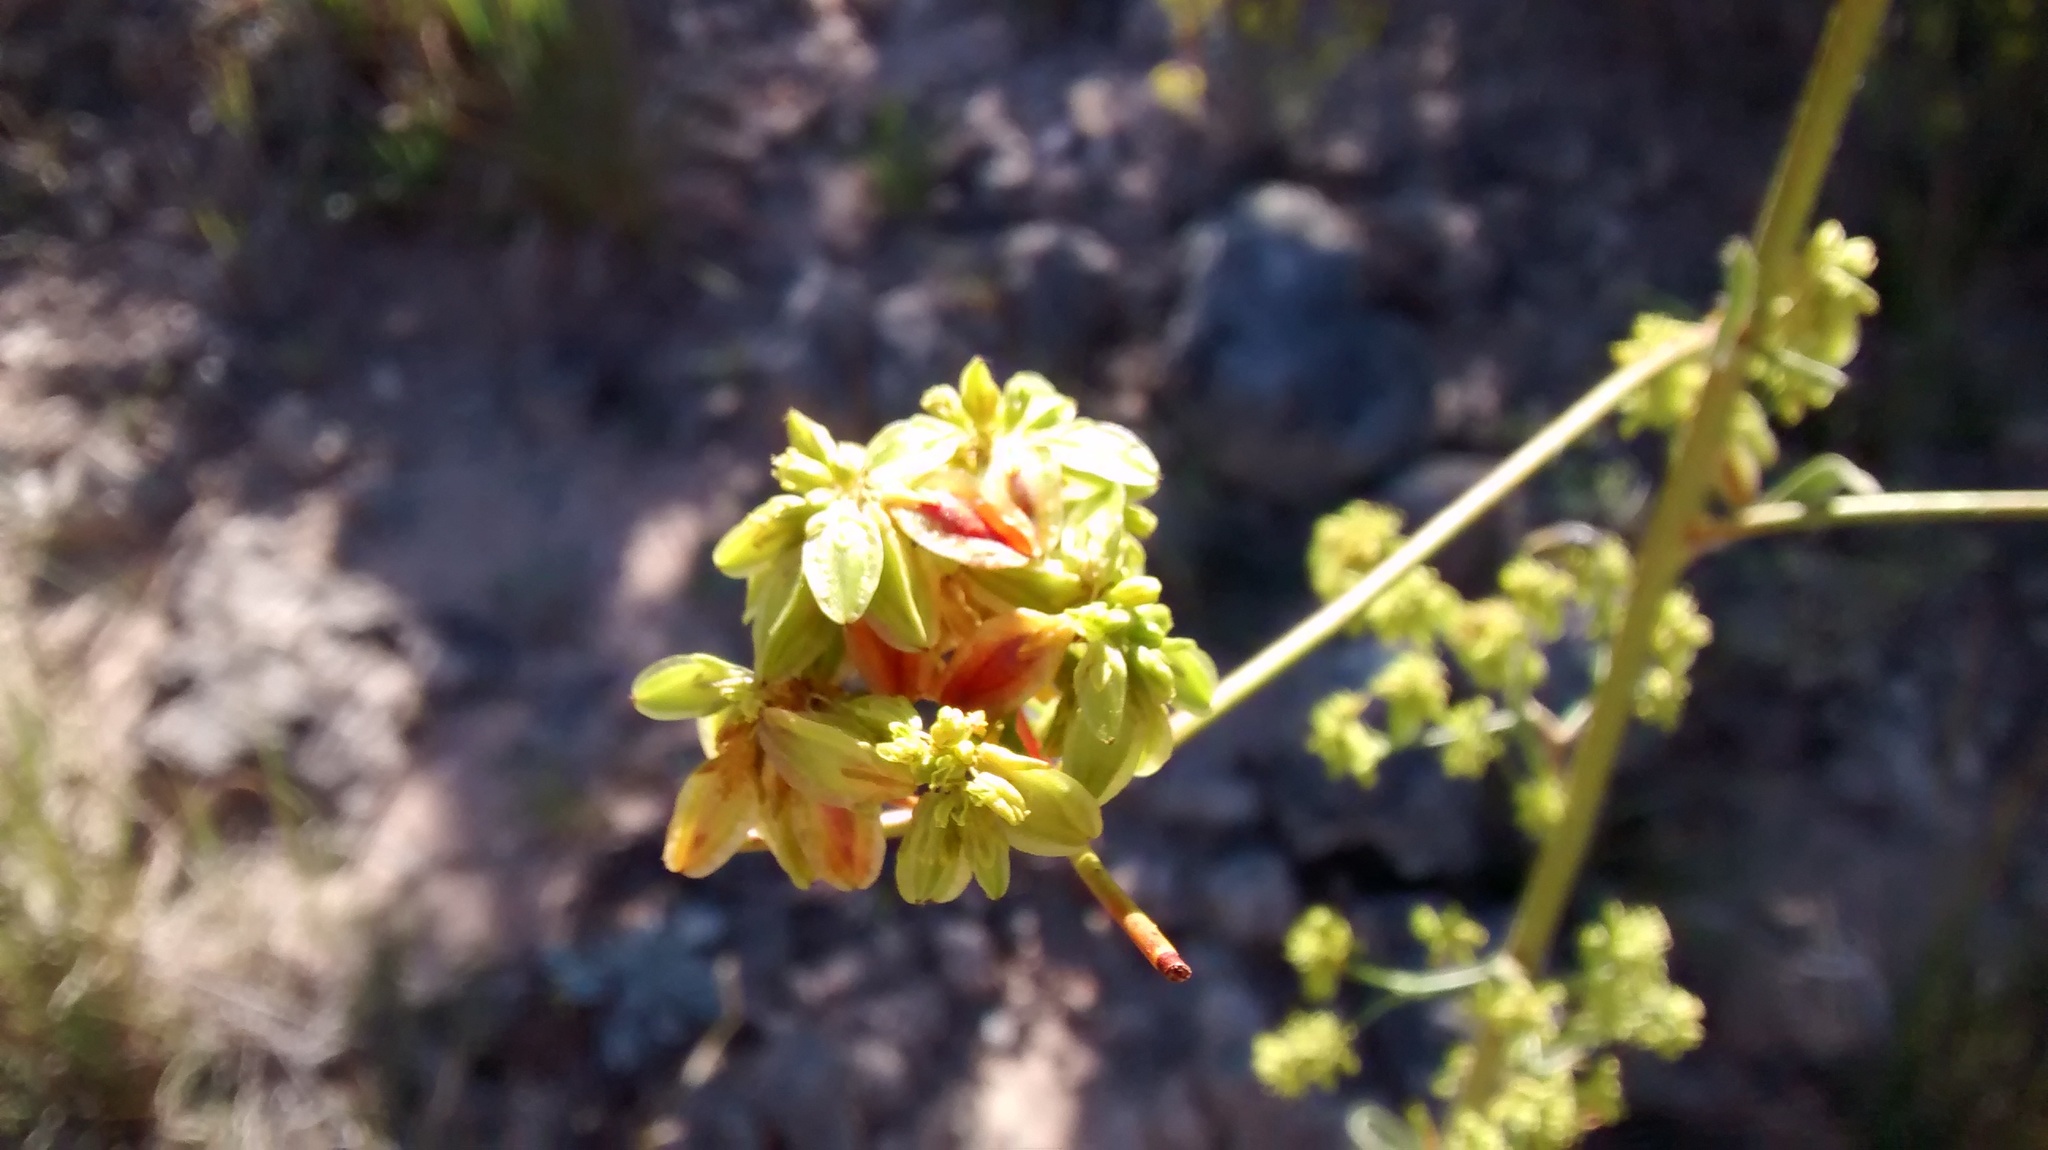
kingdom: Plantae
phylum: Tracheophyta
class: Magnoliopsida
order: Caryophyllales
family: Polygonaceae
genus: Eriogonum
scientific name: Eriogonum alatum
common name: Winged eriogonum
